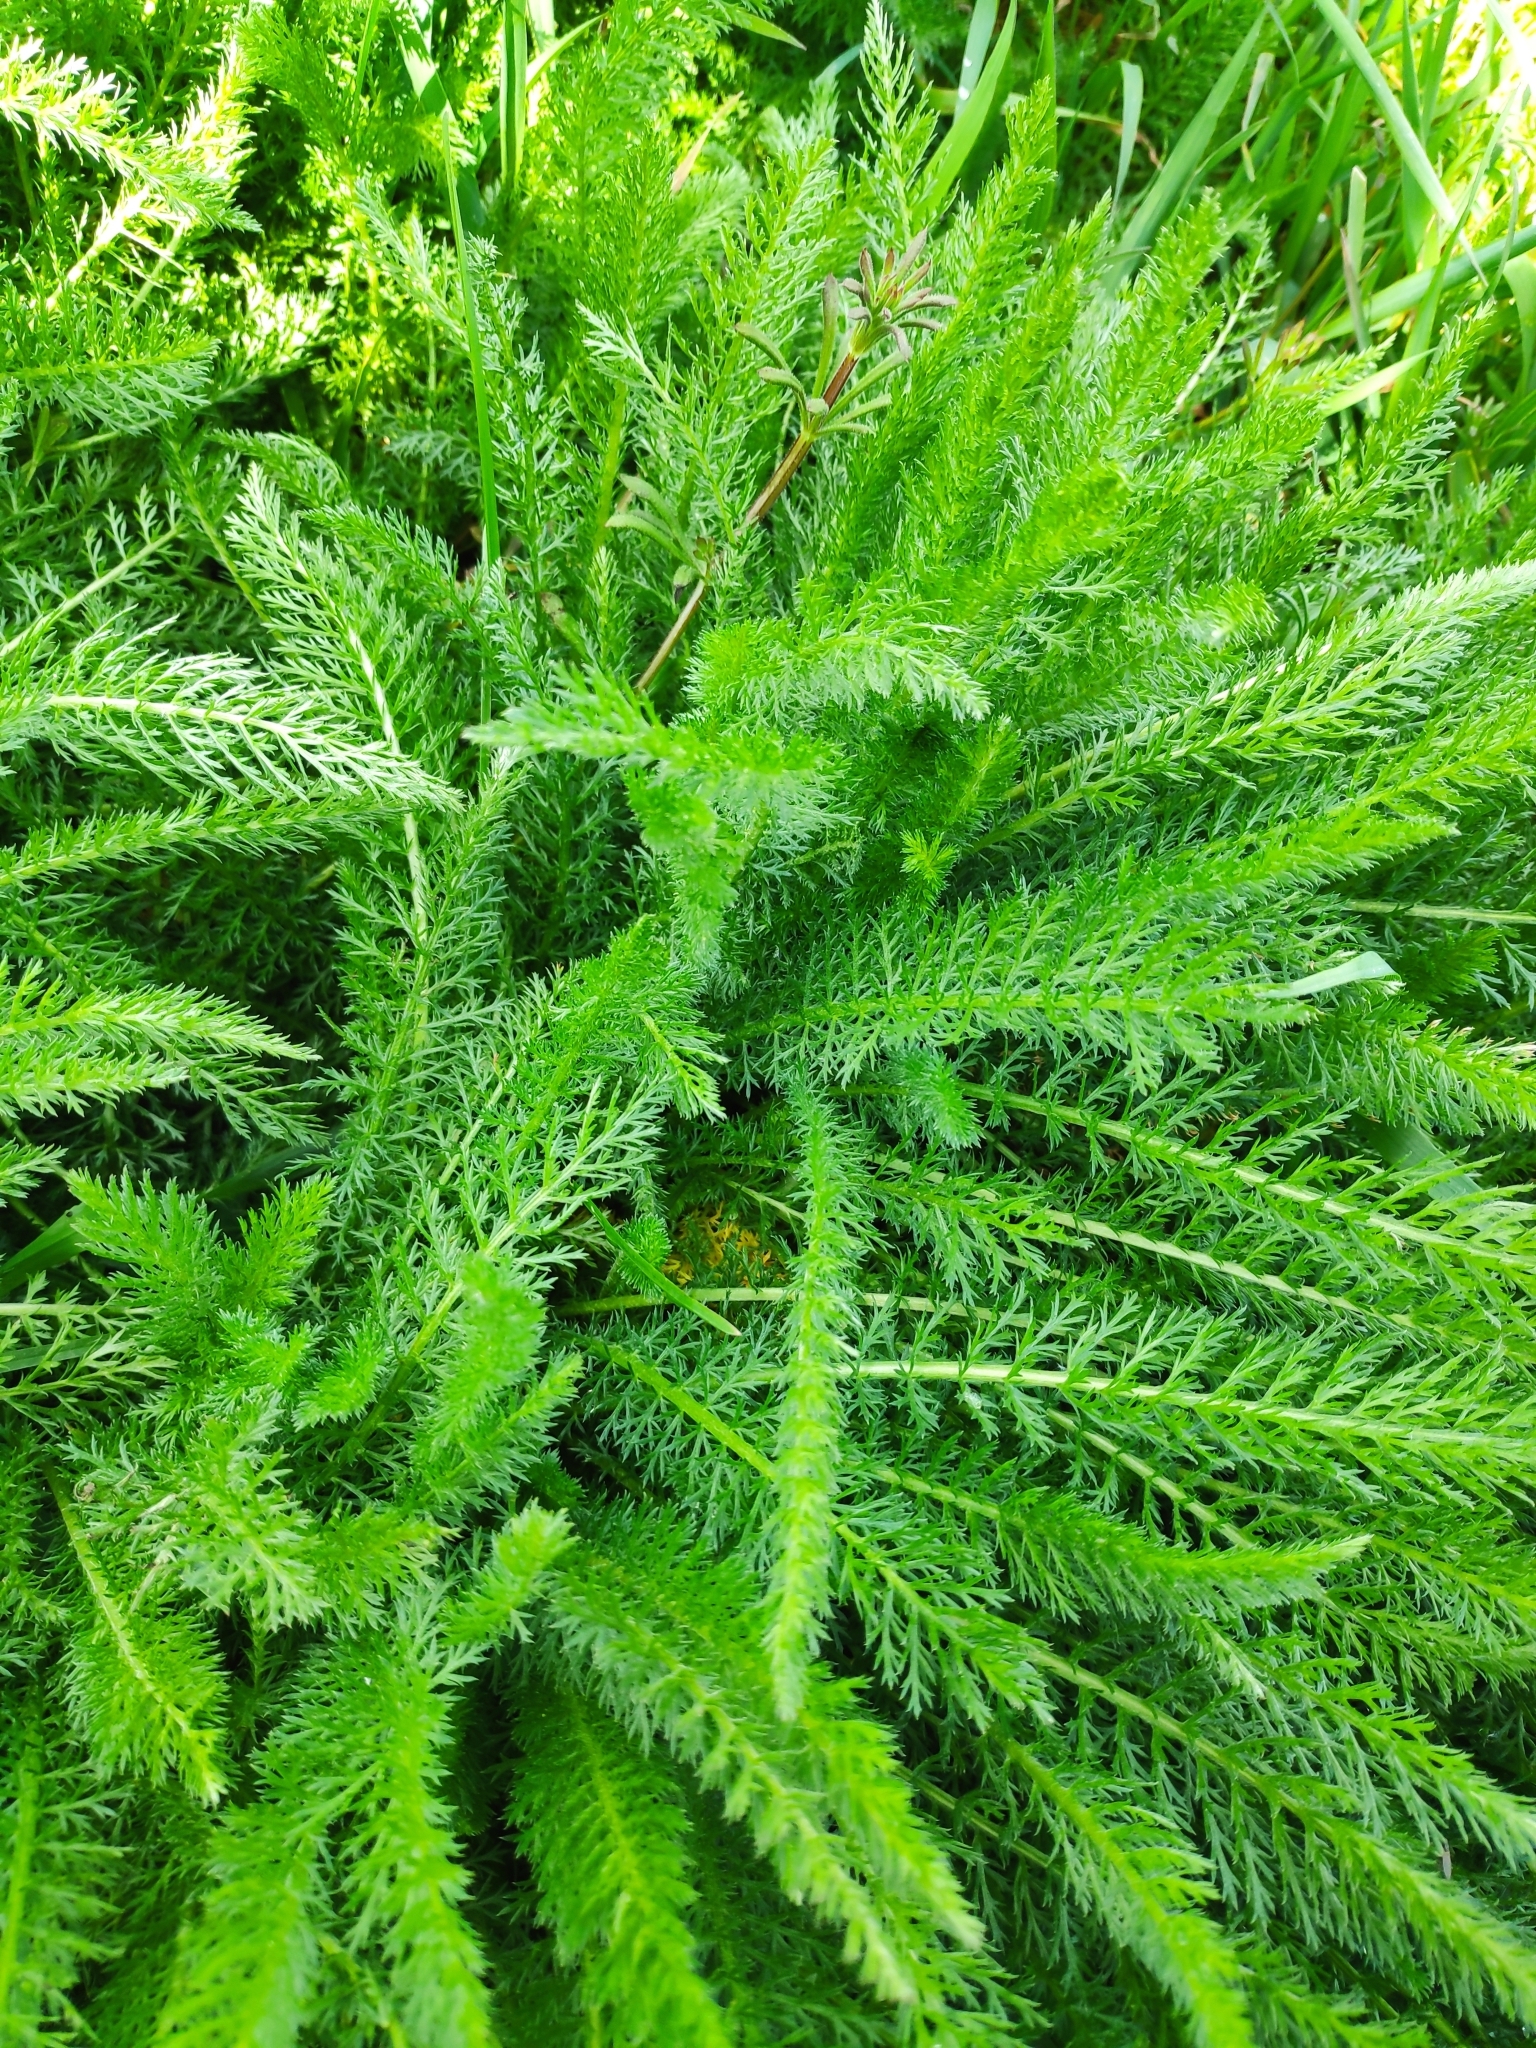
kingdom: Plantae
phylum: Tracheophyta
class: Magnoliopsida
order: Asterales
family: Asteraceae
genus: Achillea
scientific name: Achillea millefolium
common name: Yarrow
